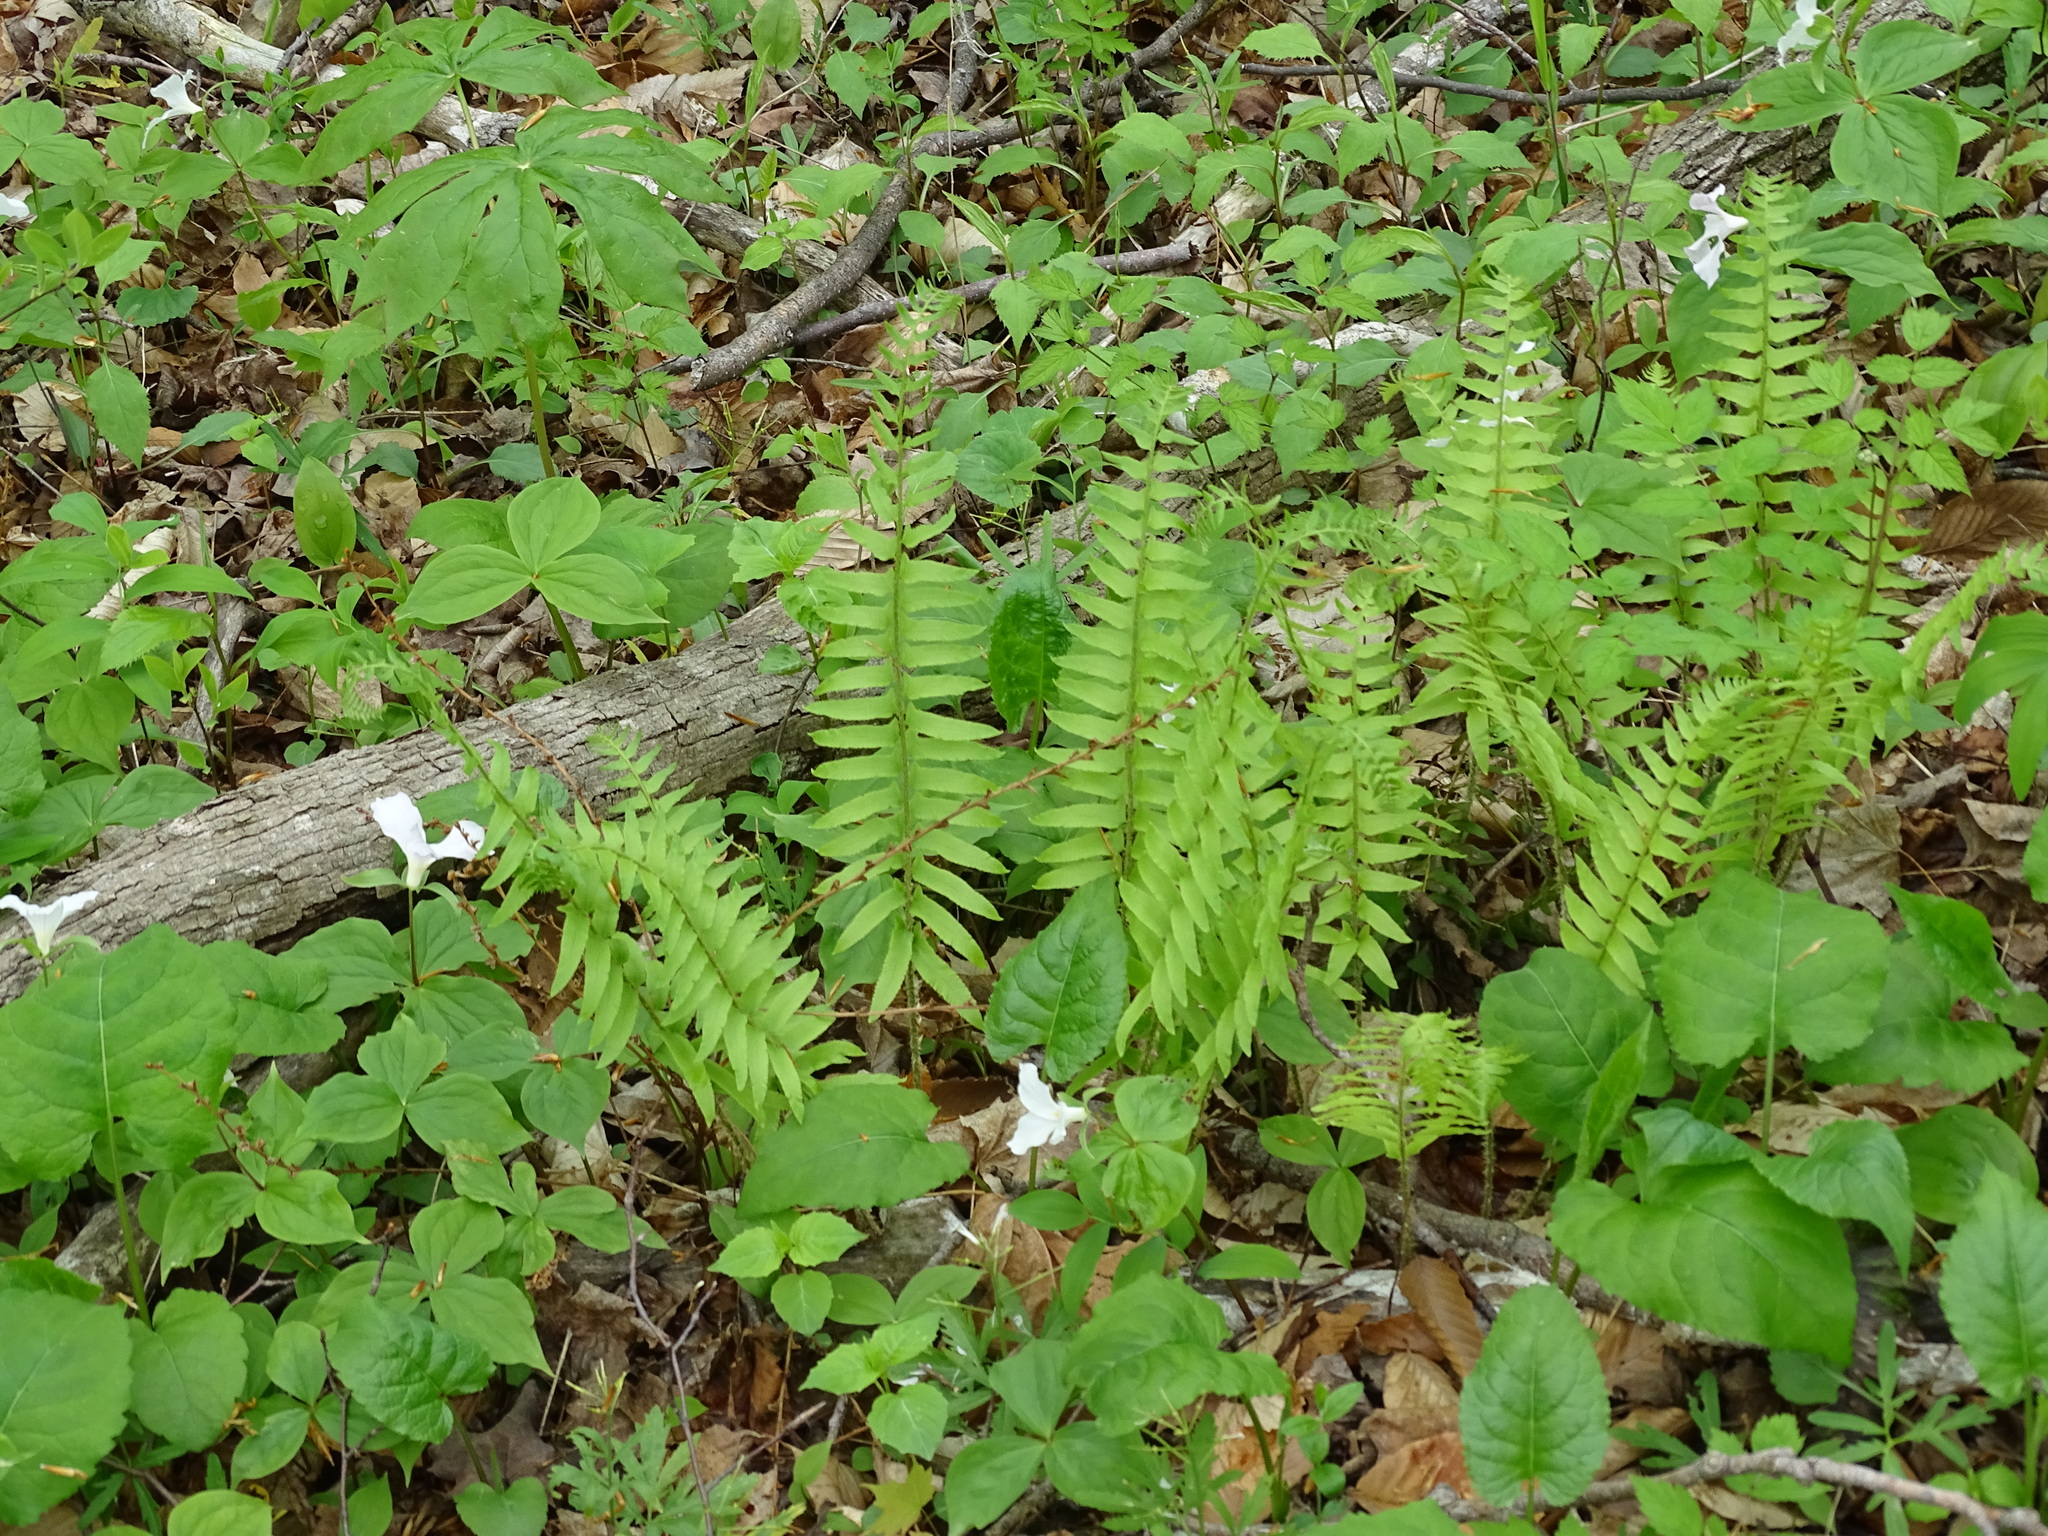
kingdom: Plantae
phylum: Tracheophyta
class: Polypodiopsida
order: Polypodiales
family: Dryopteridaceae
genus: Polystichum
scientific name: Polystichum acrostichoides
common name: Christmas fern
